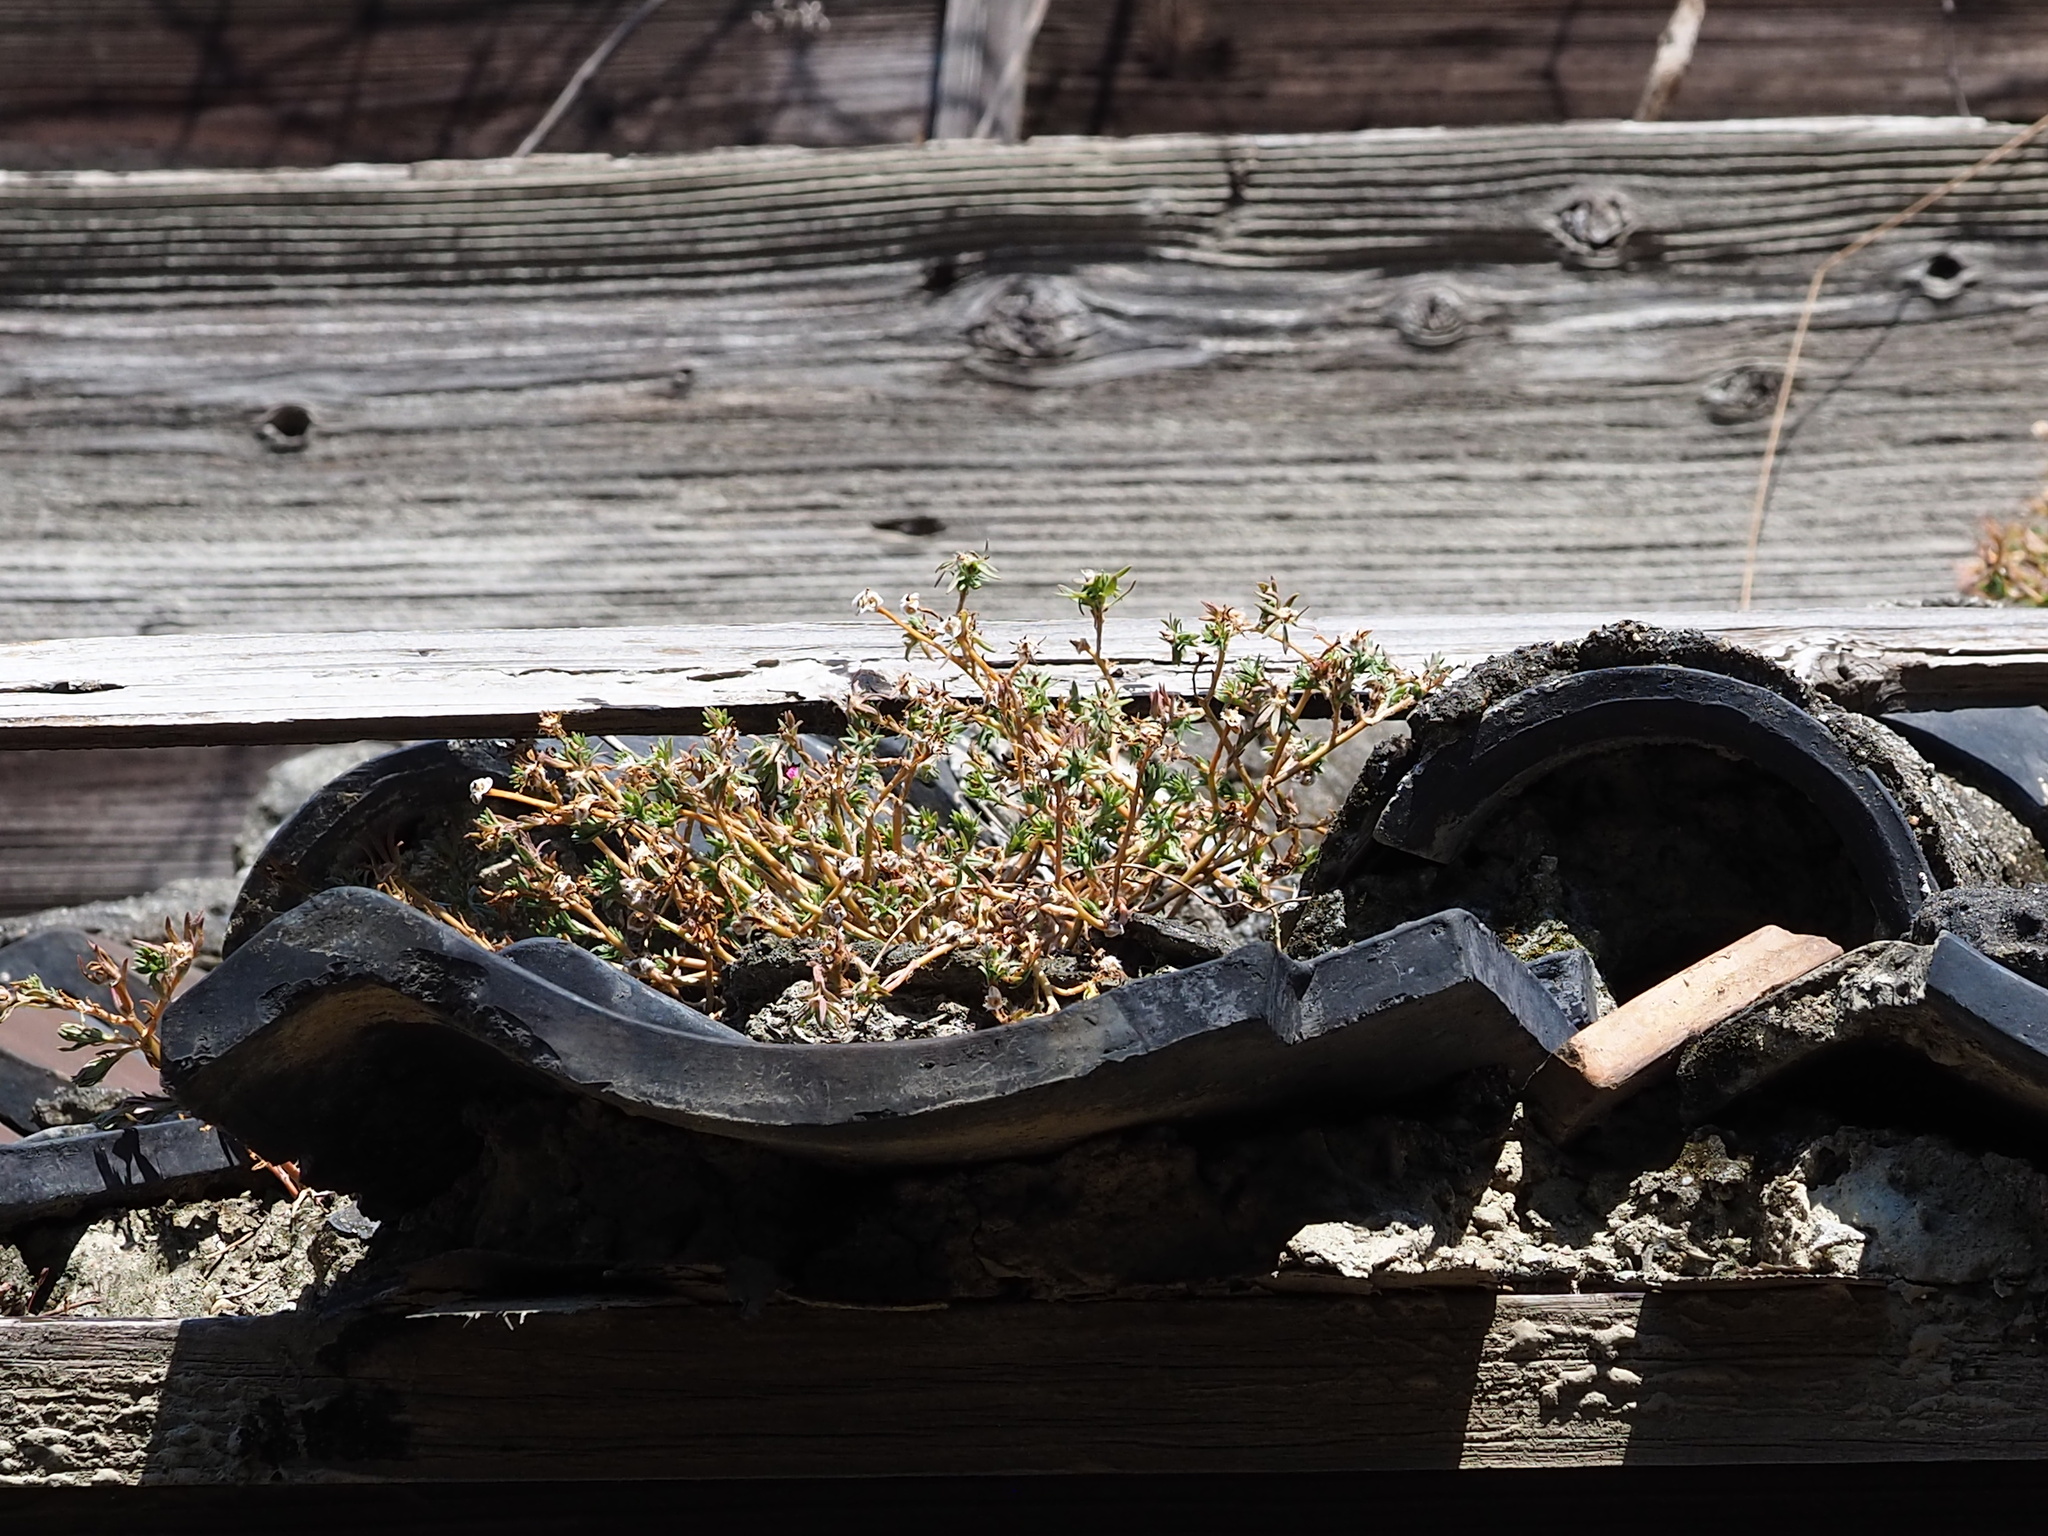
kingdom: Plantae
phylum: Tracheophyta
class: Magnoliopsida
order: Caryophyllales
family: Portulacaceae
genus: Portulaca
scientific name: Portulaca pilosa
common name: Kiss me quick
